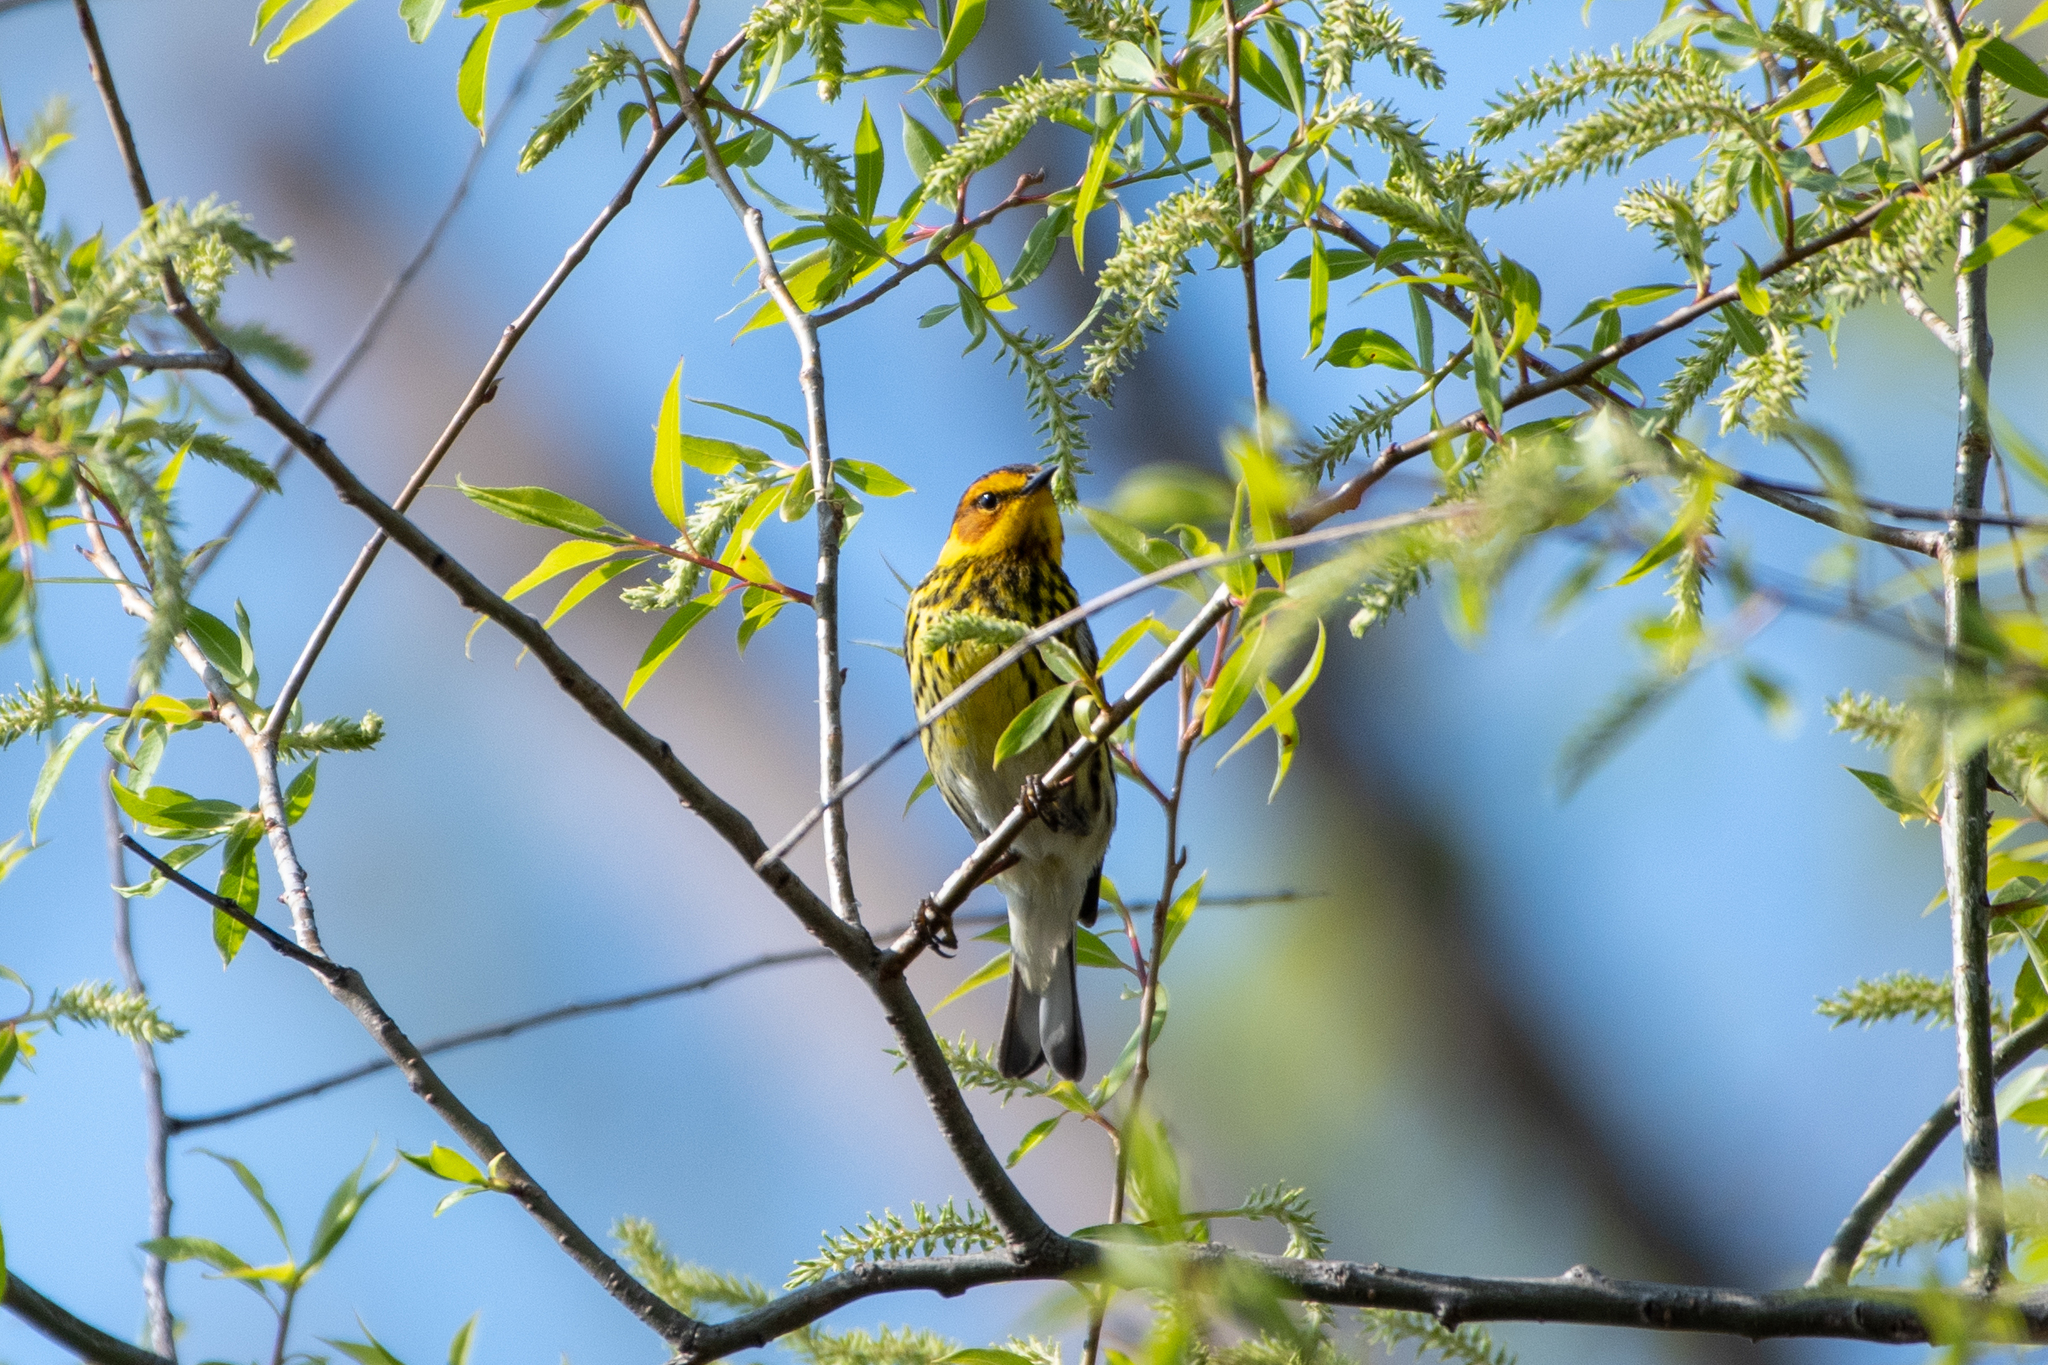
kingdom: Animalia
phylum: Chordata
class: Aves
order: Passeriformes
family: Parulidae
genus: Setophaga
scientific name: Setophaga tigrina
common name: Cape may warbler
